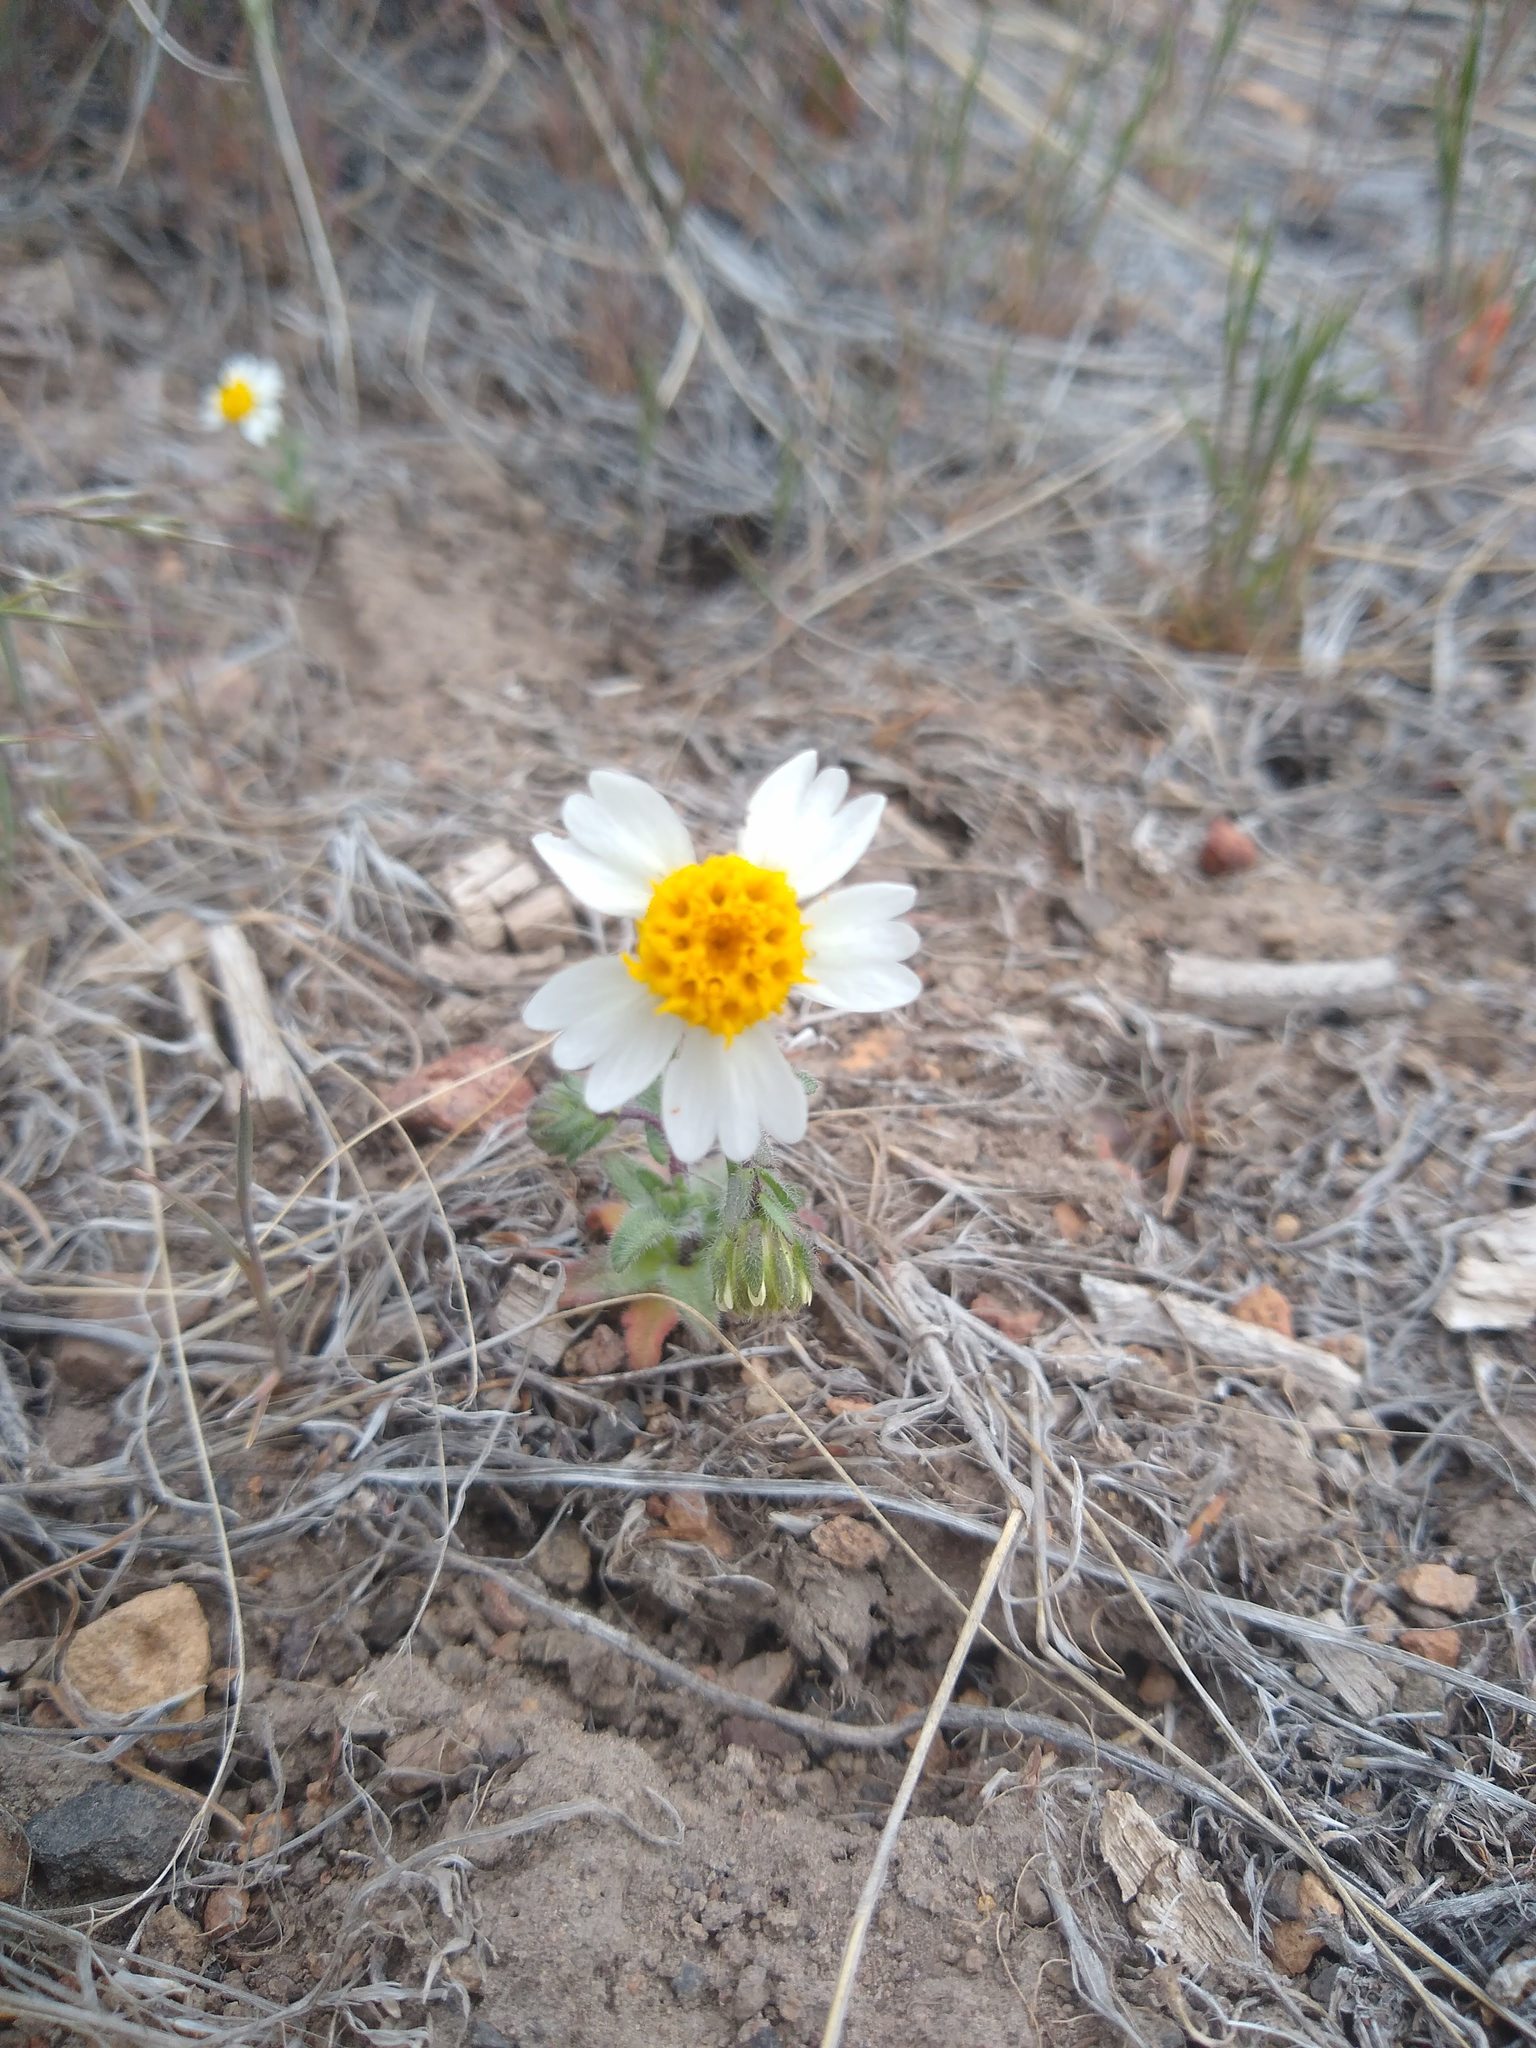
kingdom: Plantae
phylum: Tracheophyta
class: Magnoliopsida
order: Asterales
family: Asteraceae
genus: Layia
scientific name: Layia glandulosa
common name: White layia
